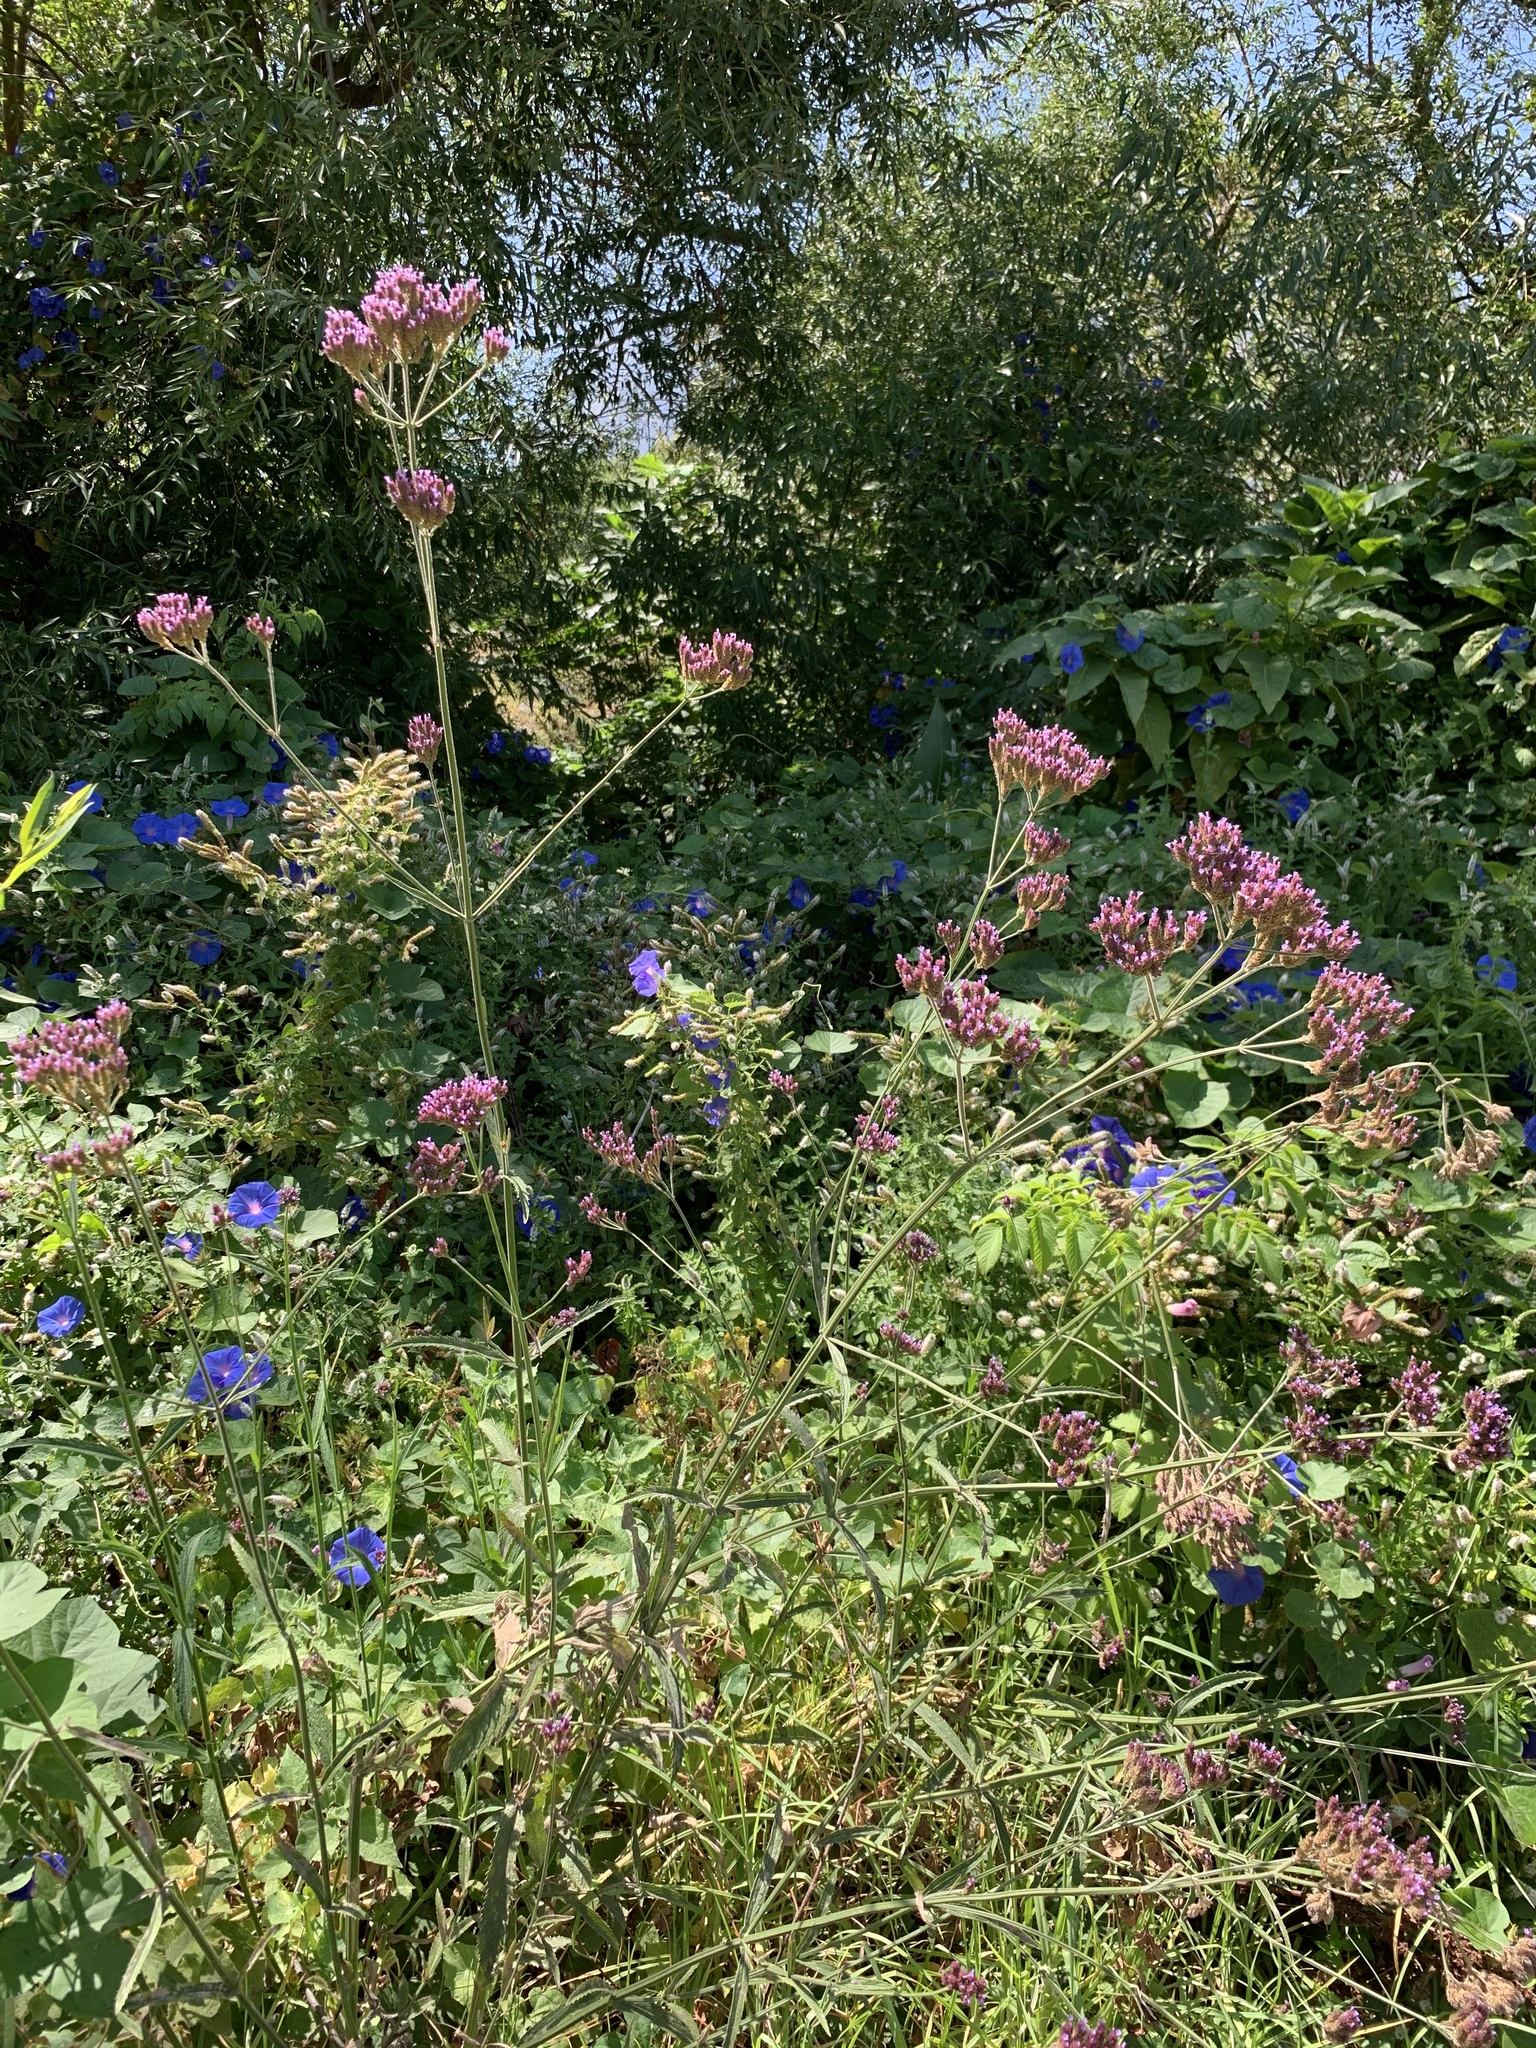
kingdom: Plantae
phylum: Tracheophyta
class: Magnoliopsida
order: Lamiales
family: Verbenaceae
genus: Verbena
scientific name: Verbena bonariensis
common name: Purpletop vervain
